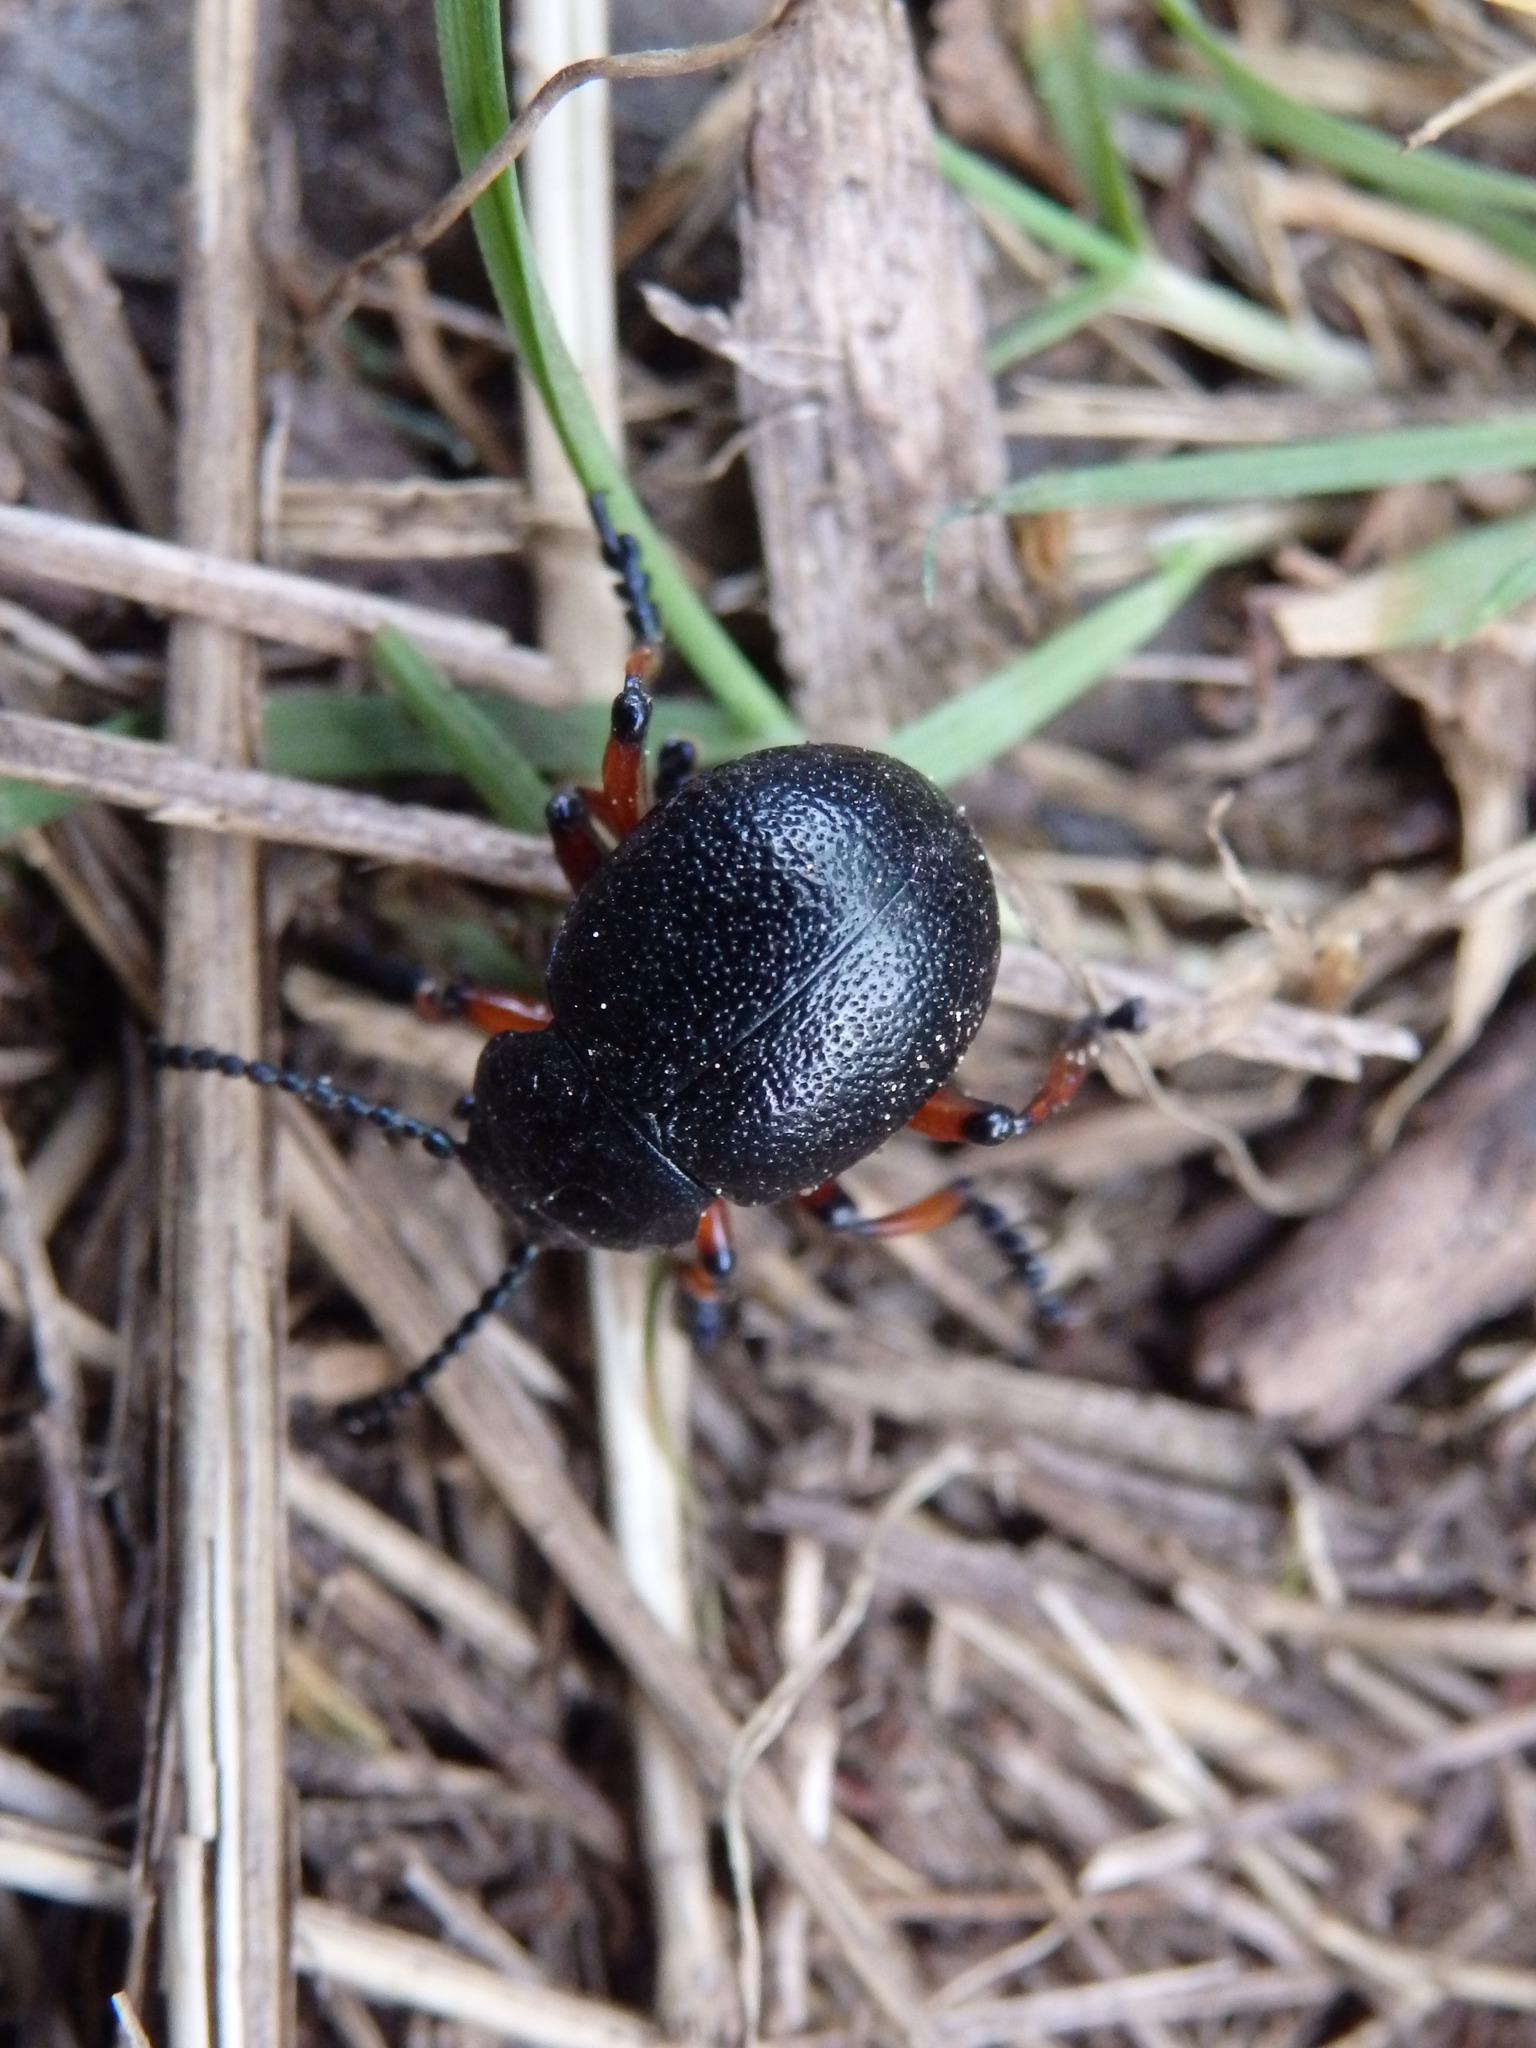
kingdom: Animalia
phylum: Arthropoda
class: Insecta
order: Coleoptera
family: Chrysomelidae
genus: Timarcha
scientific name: Timarcha calceata
